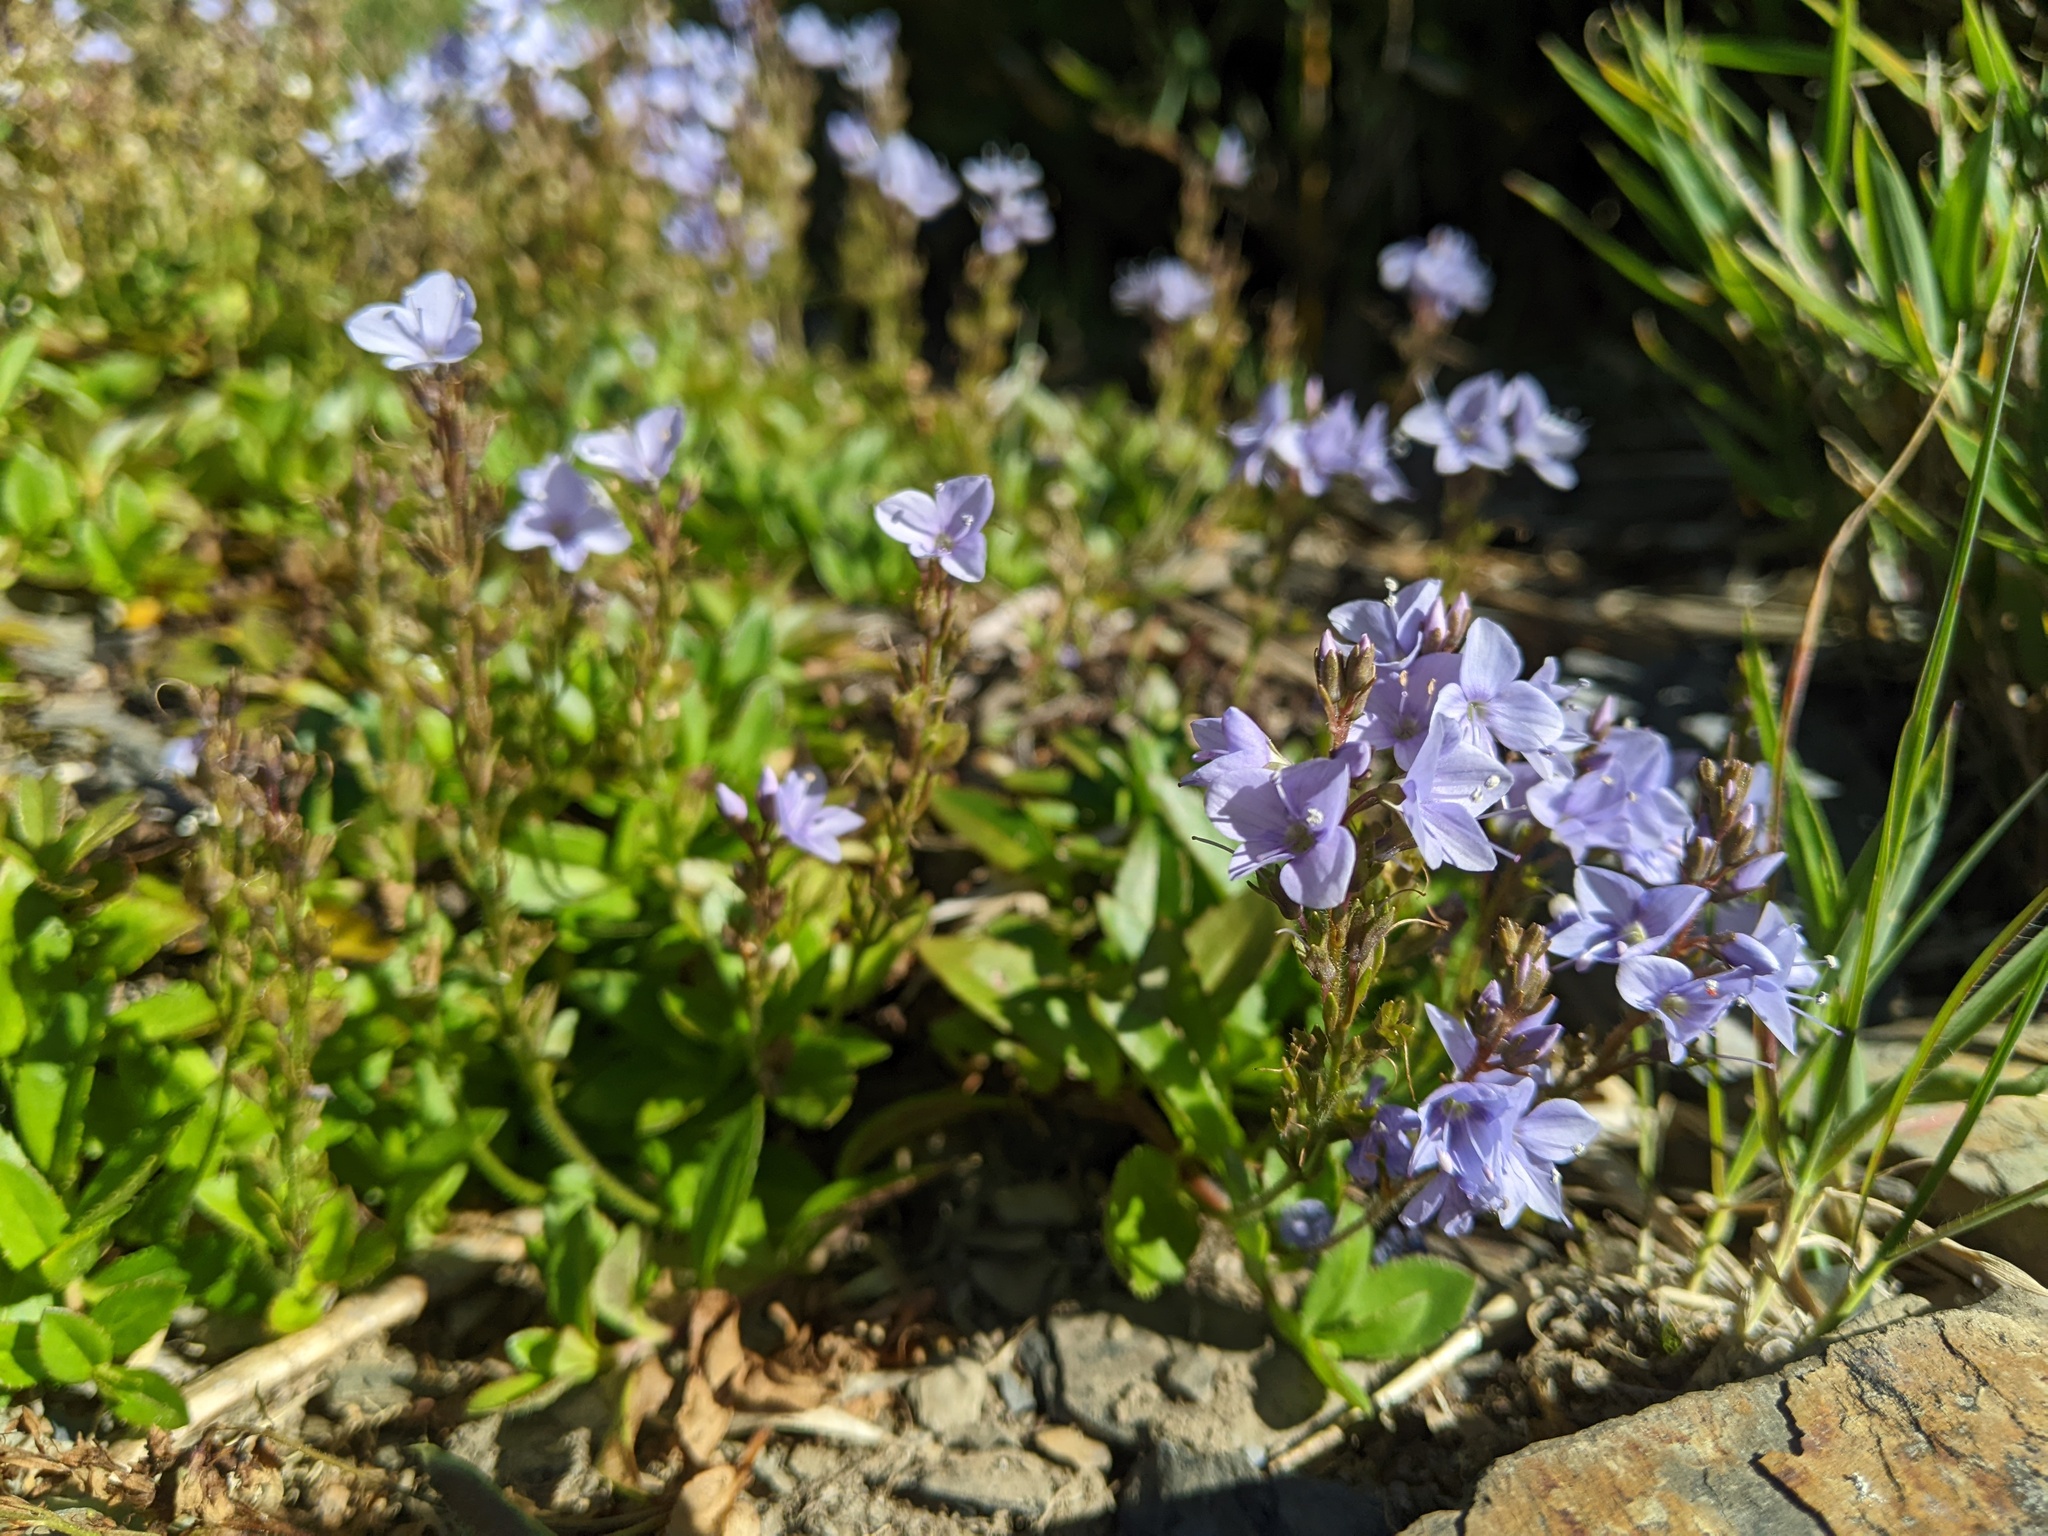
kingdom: Plantae
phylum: Tracheophyta
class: Magnoliopsida
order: Lamiales
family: Plantaginaceae
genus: Veronica
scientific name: Veronica morrisonicola
